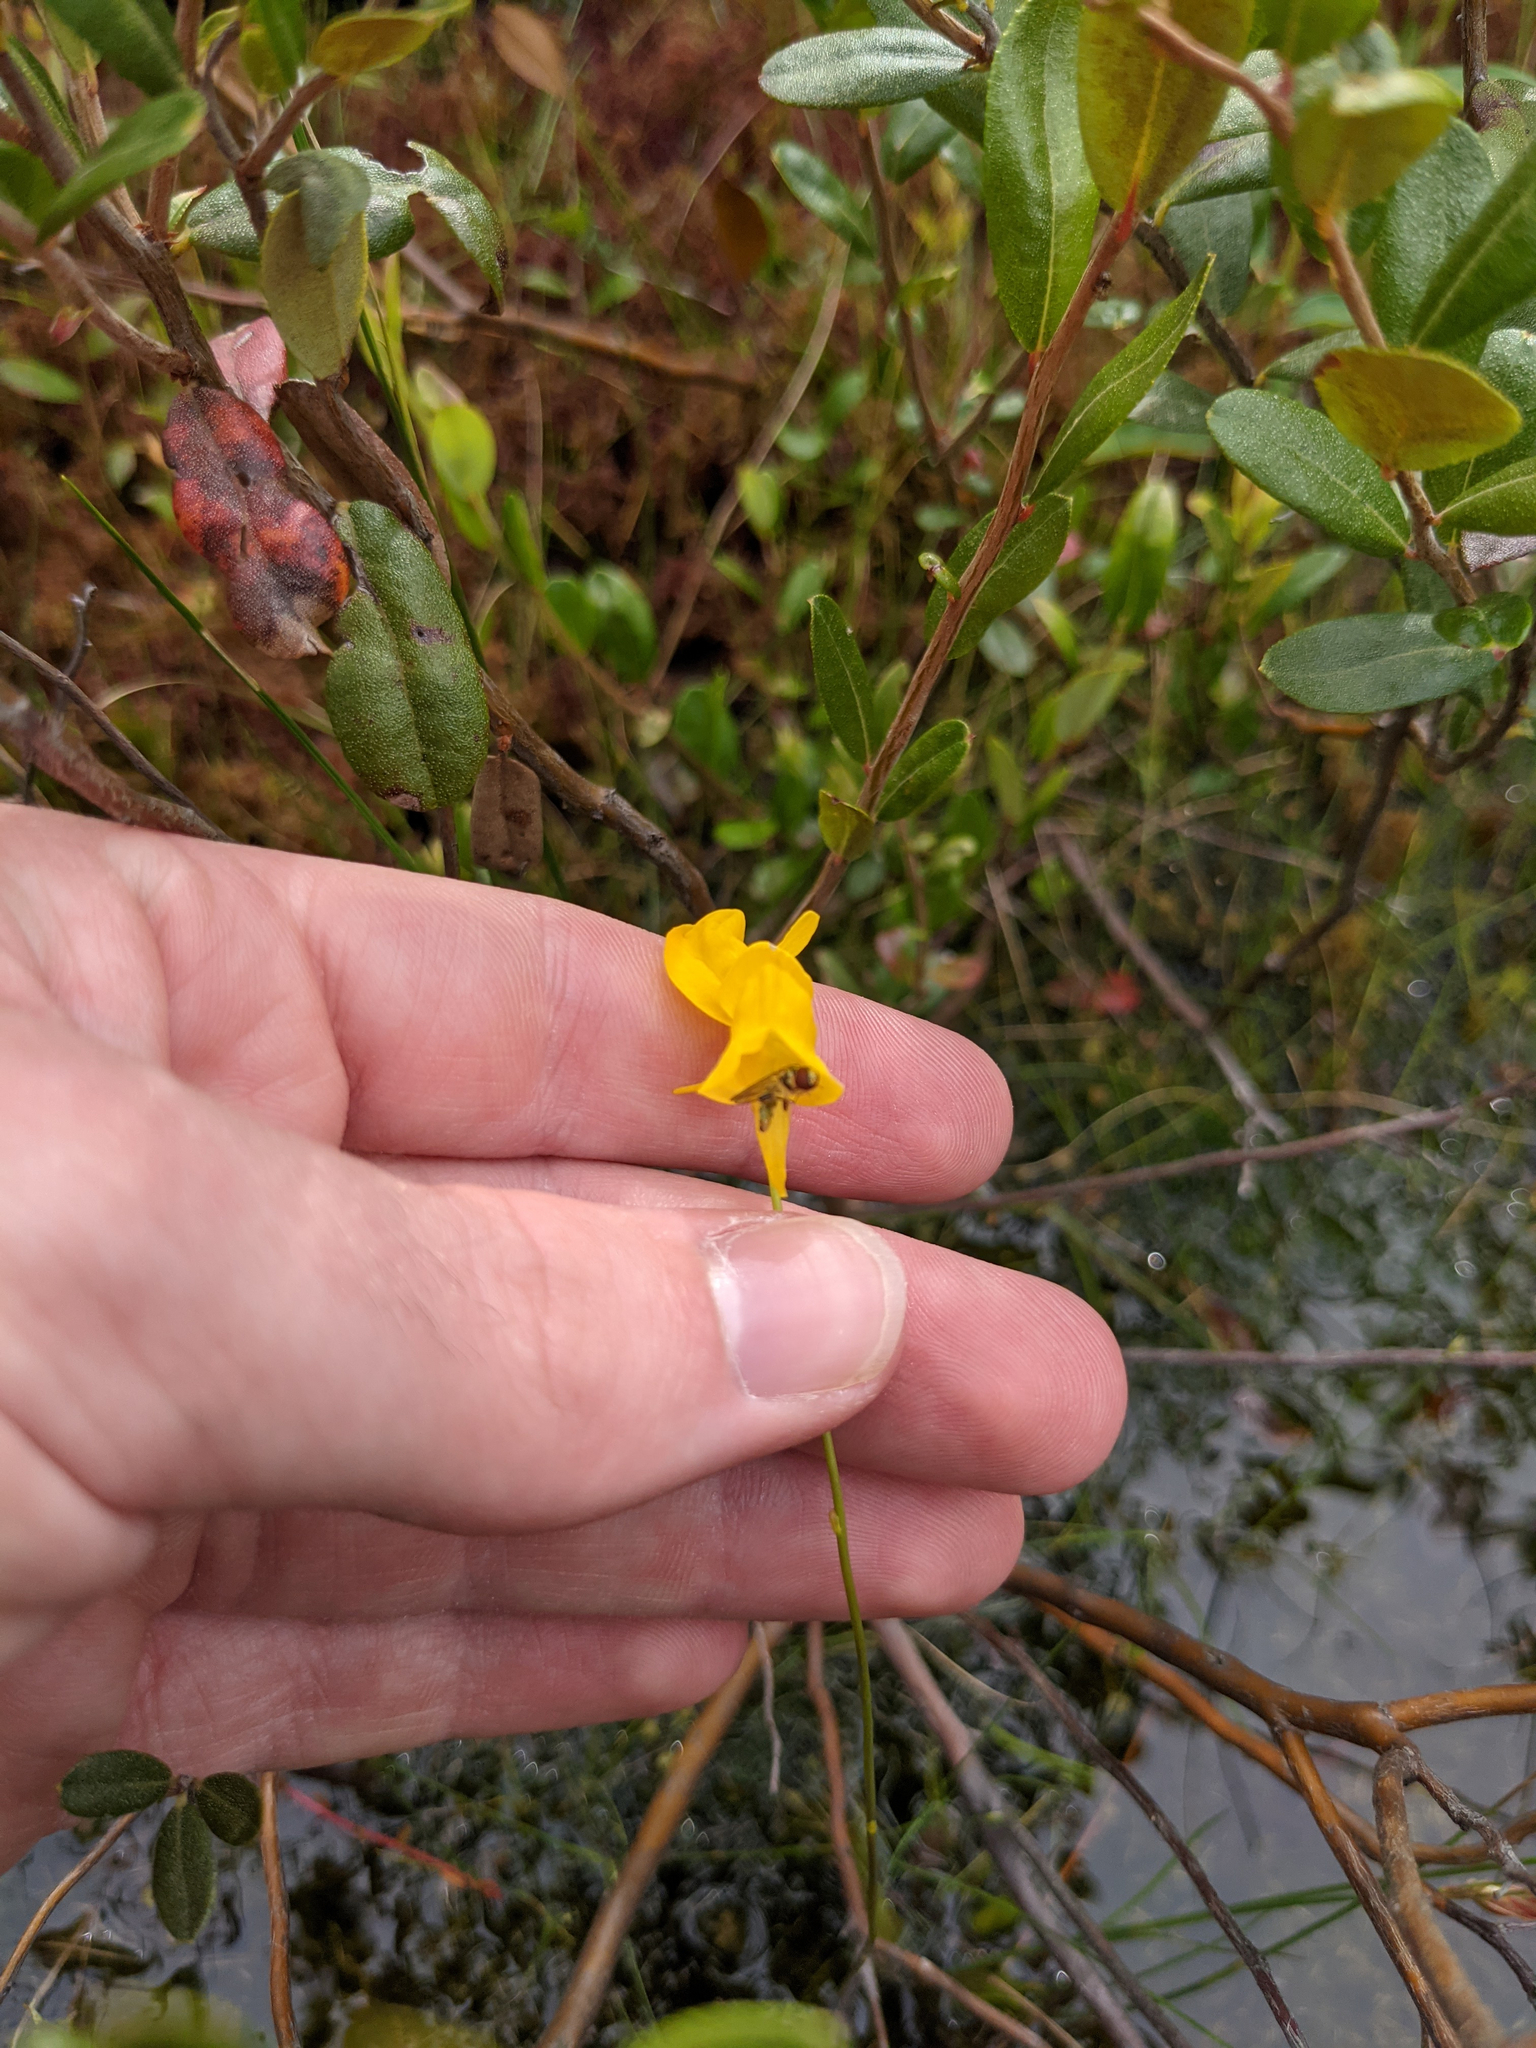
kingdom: Plantae
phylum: Tracheophyta
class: Magnoliopsida
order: Lamiales
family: Lentibulariaceae
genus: Utricularia
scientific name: Utricularia cornuta
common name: Horned bladderwort
